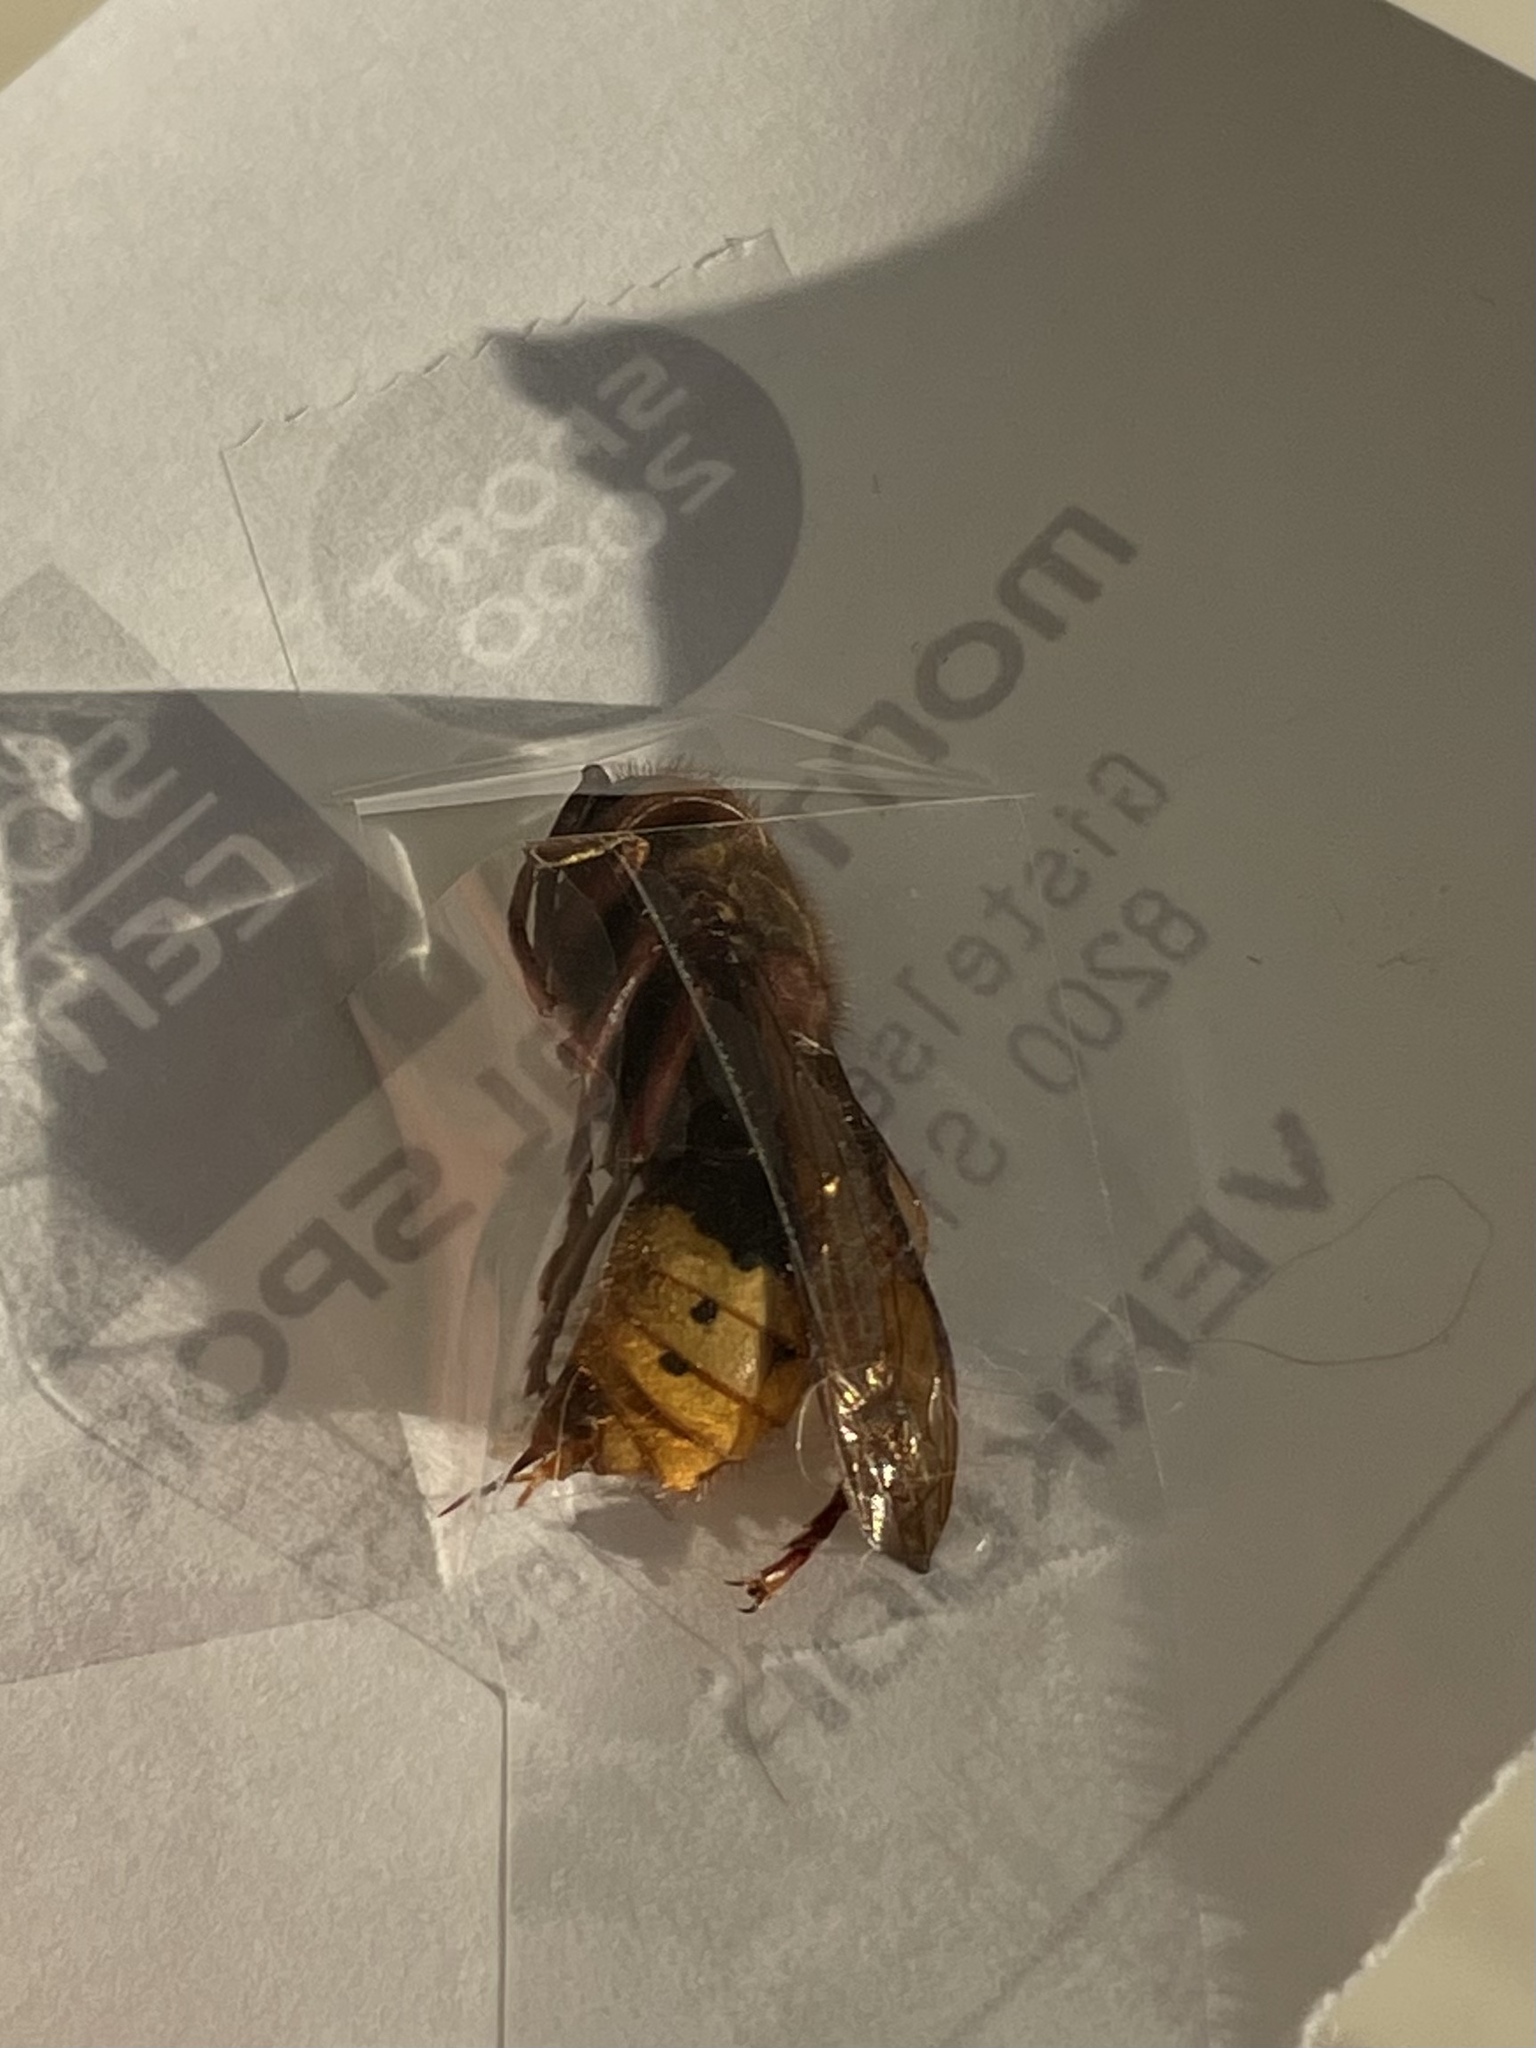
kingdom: Animalia
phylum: Arthropoda
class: Insecta
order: Hymenoptera
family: Vespidae
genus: Vespa
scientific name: Vespa crabro
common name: Hornet
